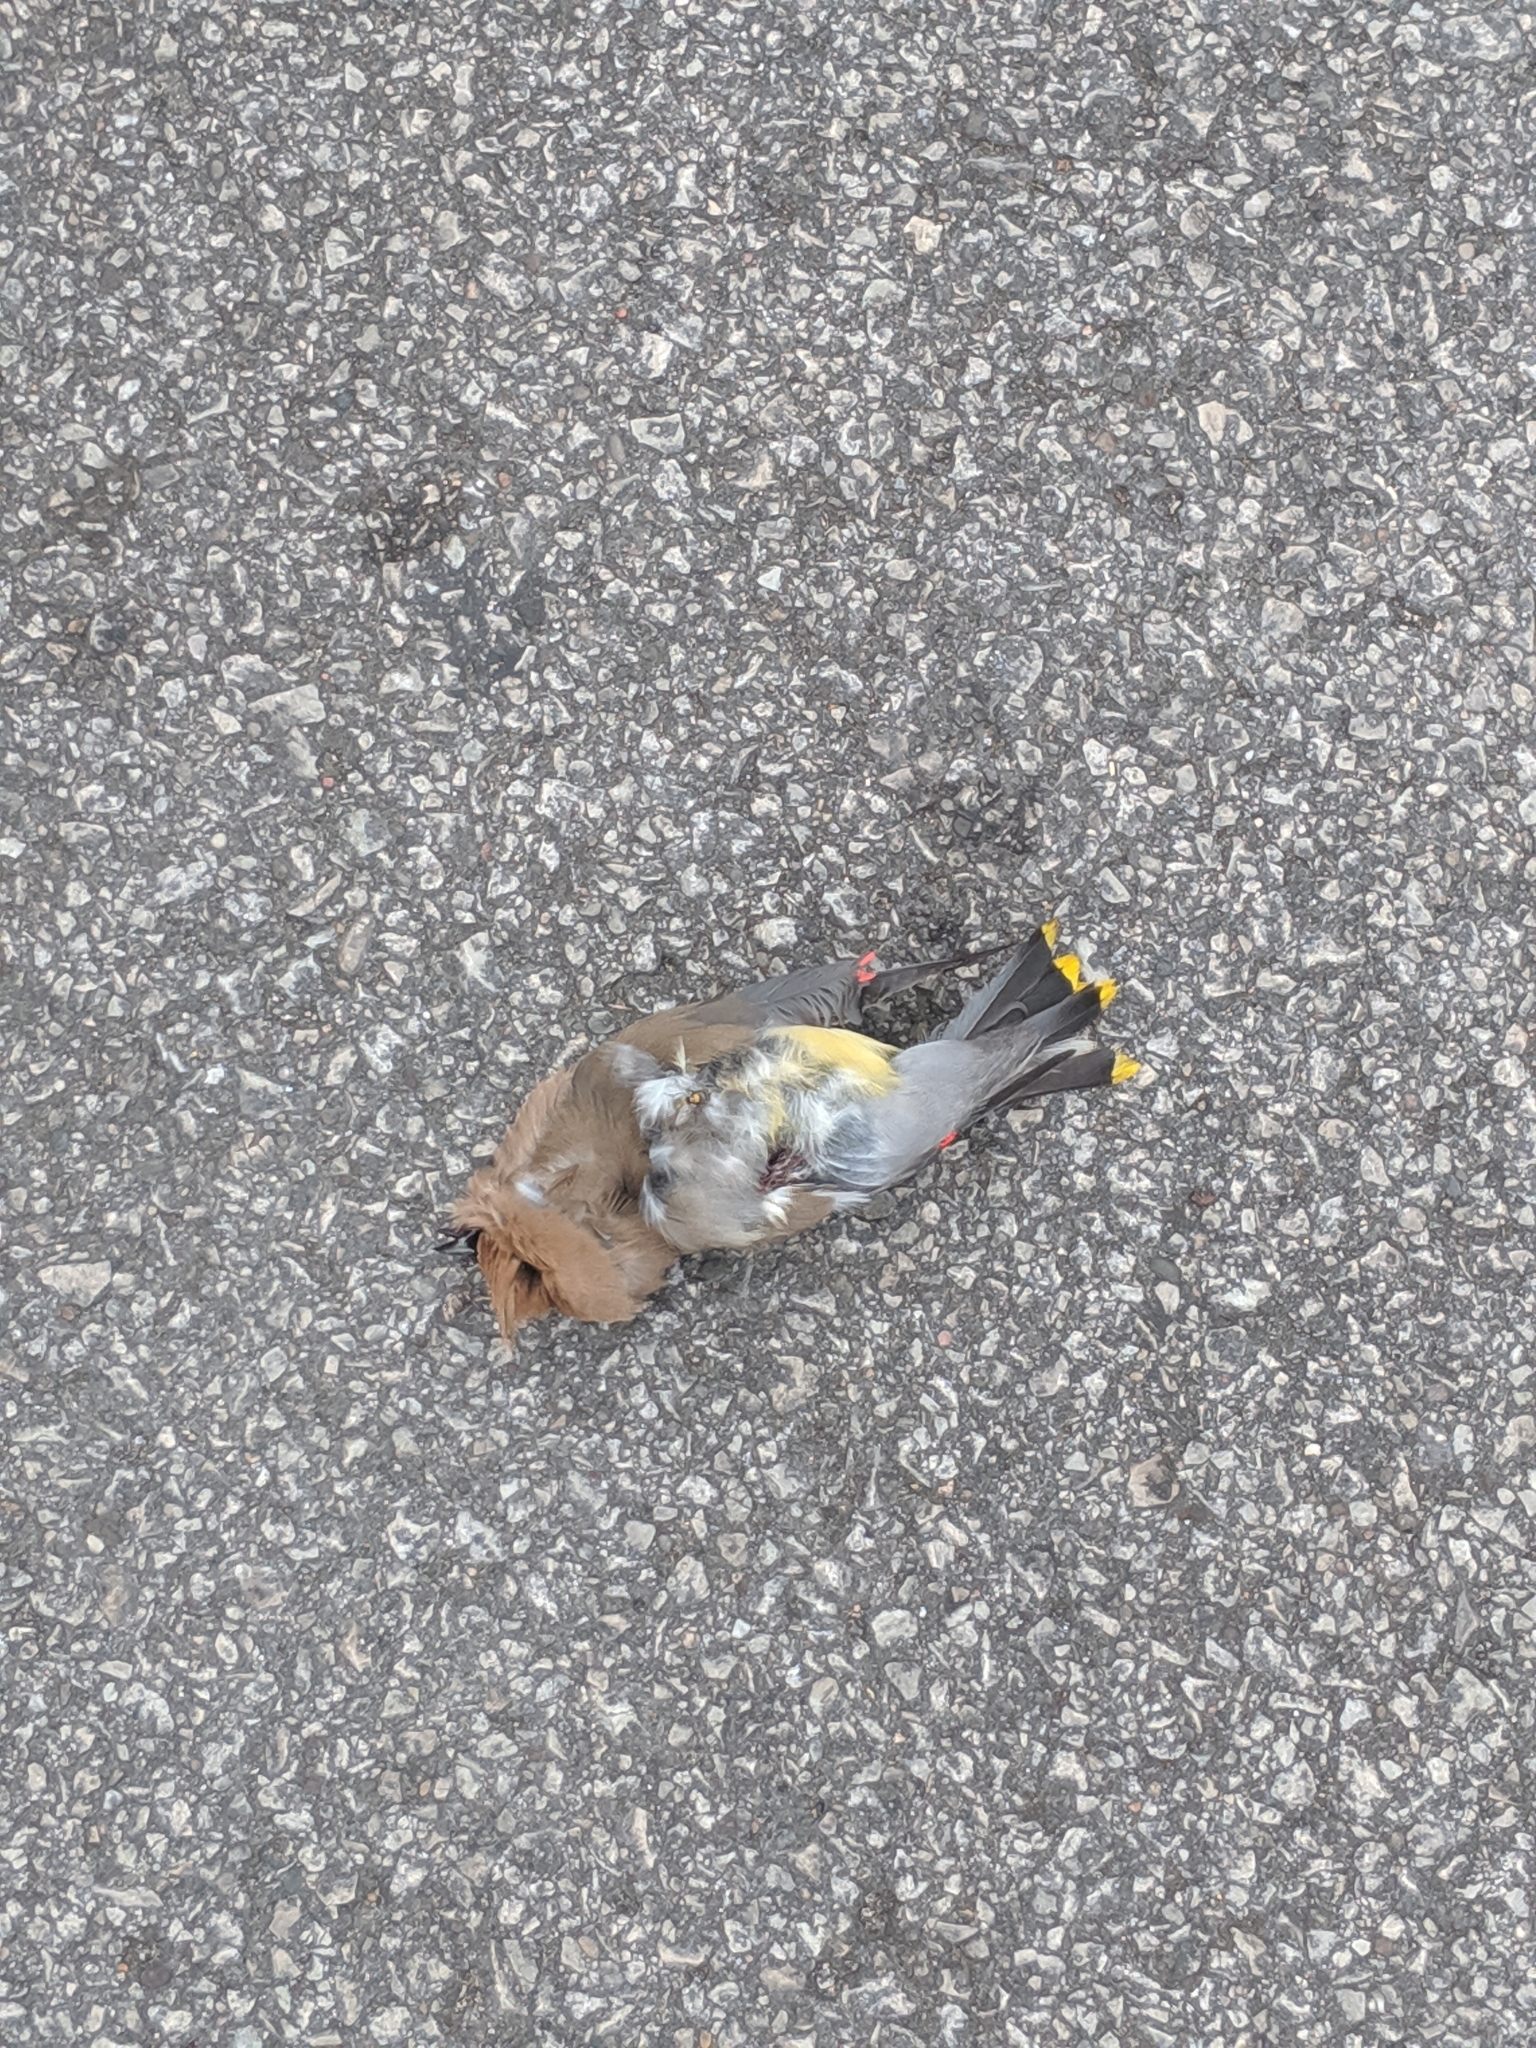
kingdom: Animalia
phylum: Chordata
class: Aves
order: Passeriformes
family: Bombycillidae
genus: Bombycilla
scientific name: Bombycilla cedrorum
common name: Cedar waxwing
